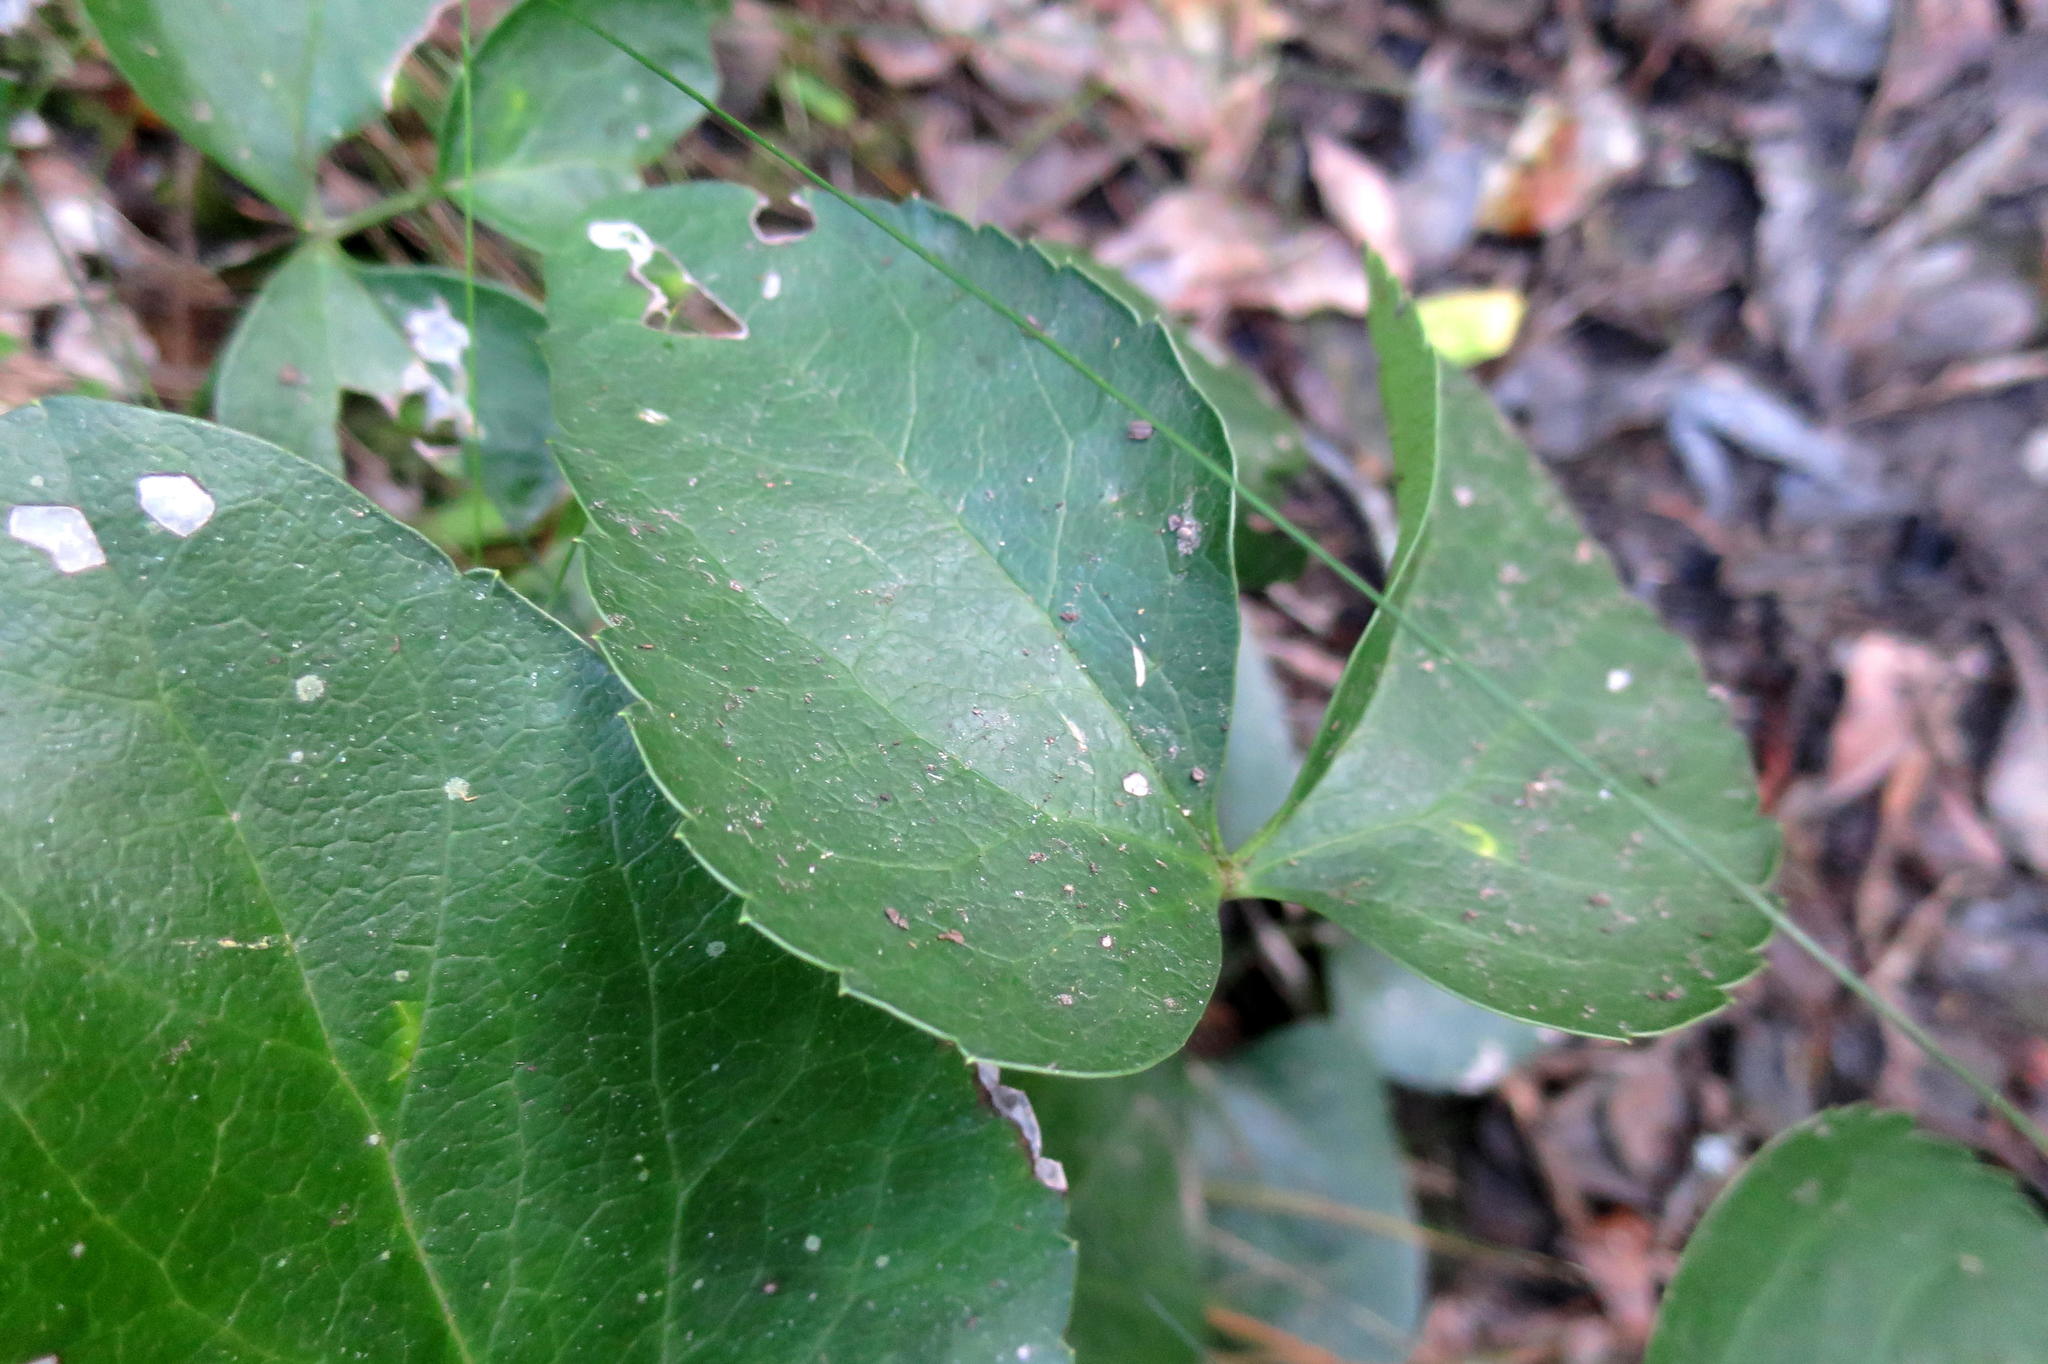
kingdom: Plantae
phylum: Tracheophyta
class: Magnoliopsida
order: Ranunculales
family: Ranunculaceae
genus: Knowltonia
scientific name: Knowltonia vesicatoria
